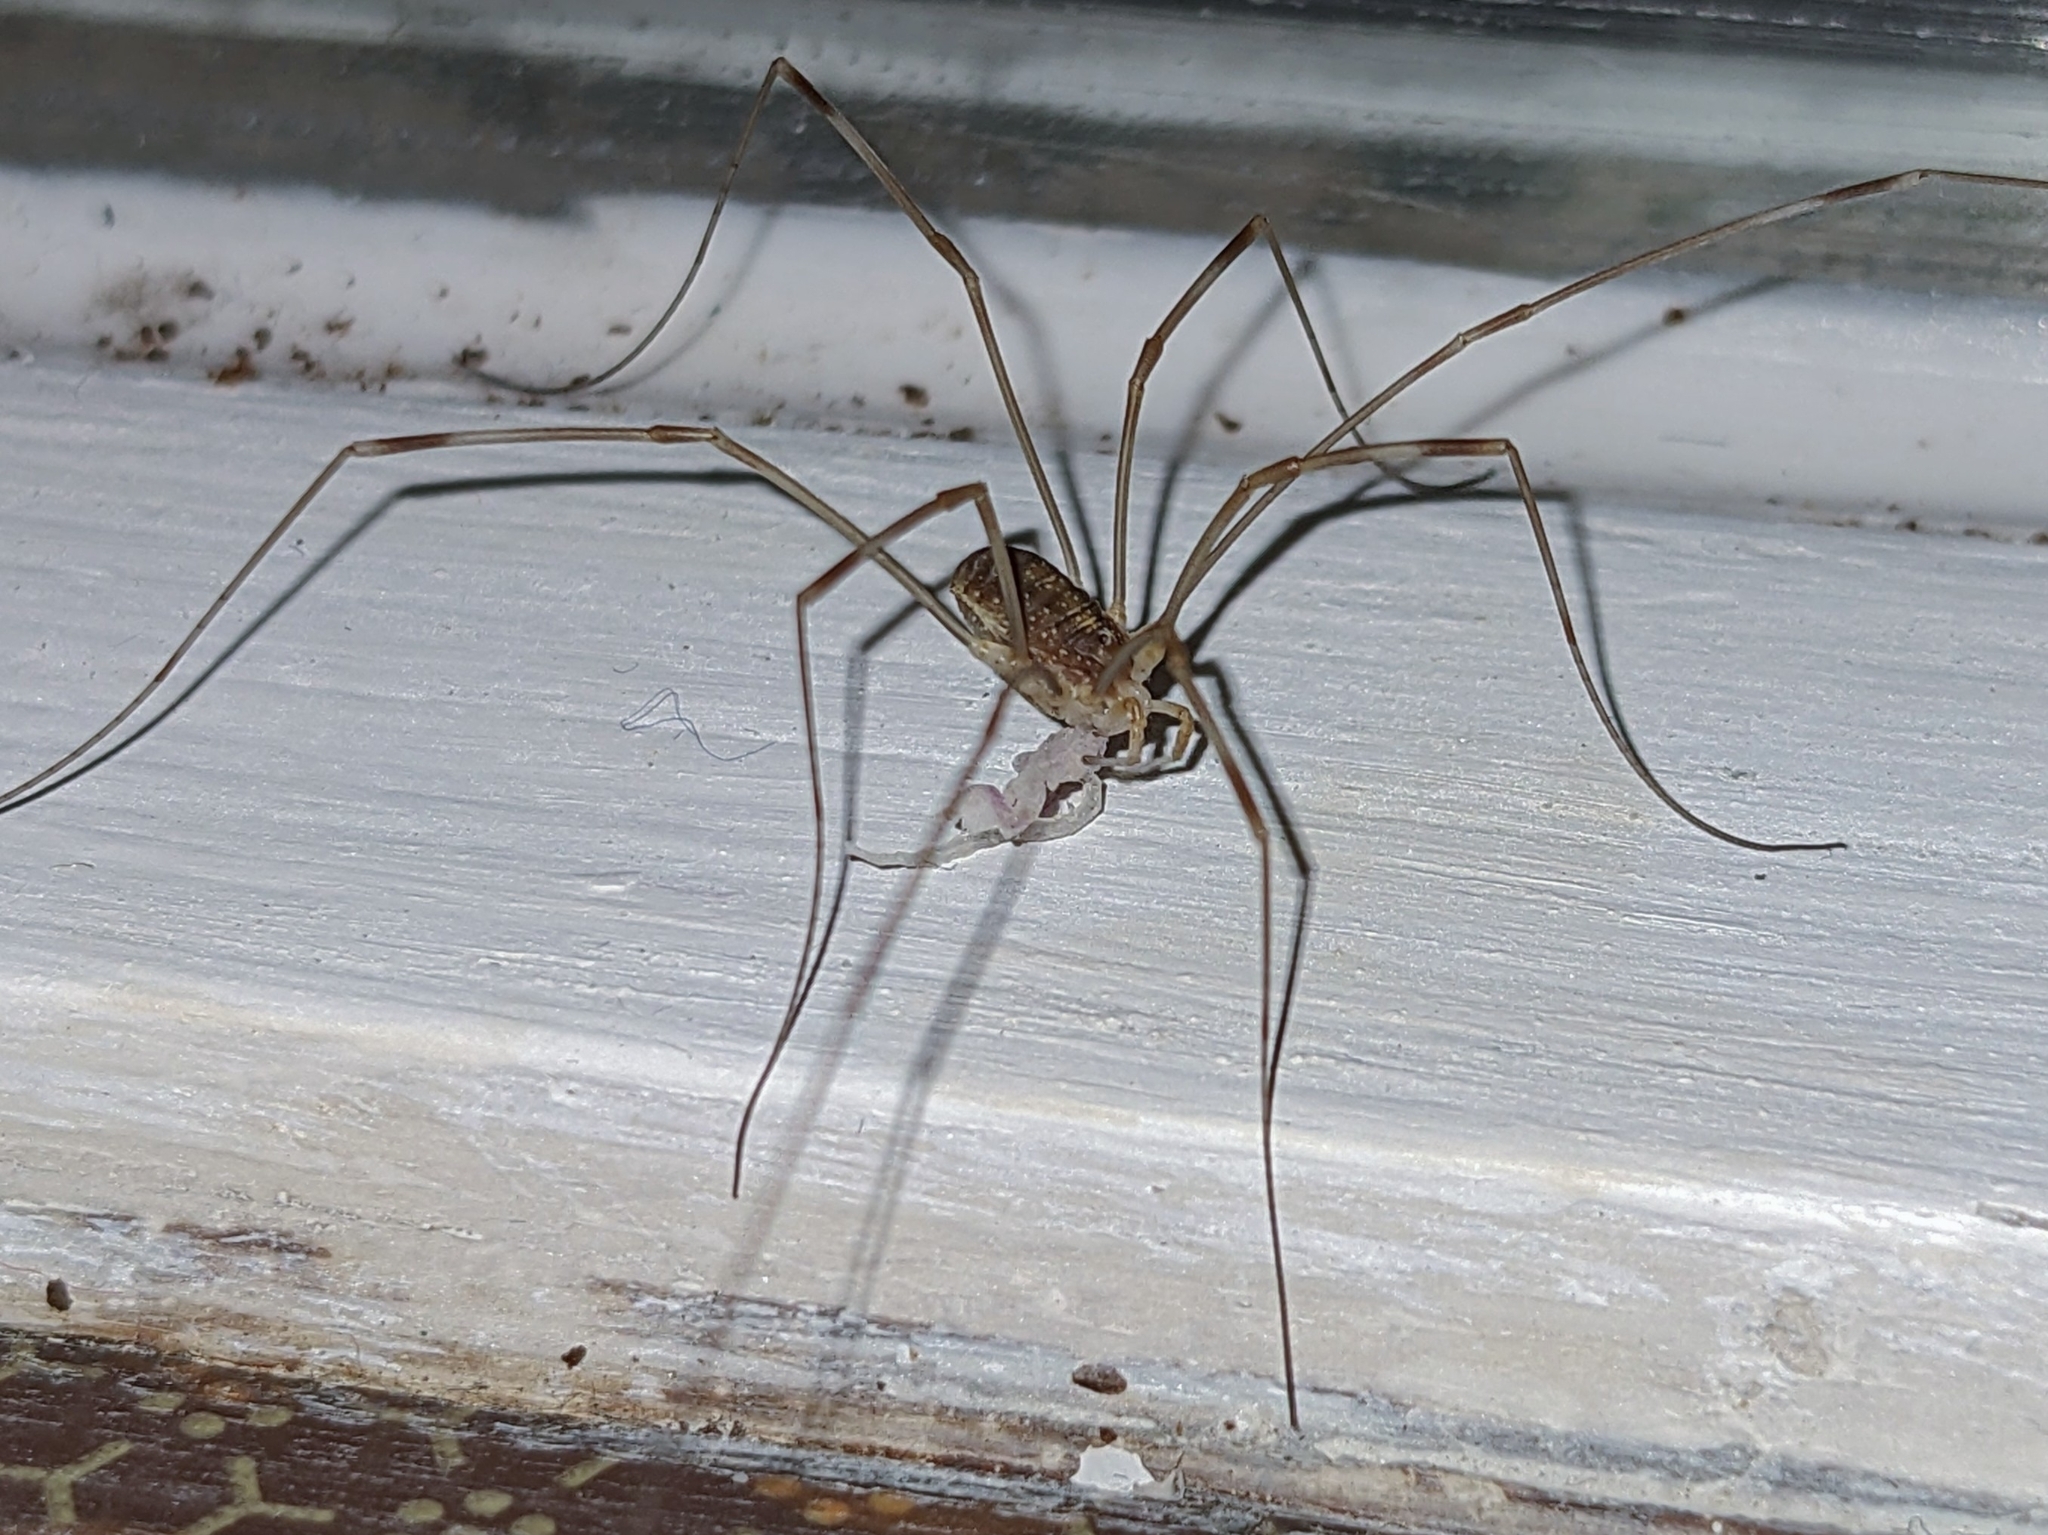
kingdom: Animalia
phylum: Arthropoda
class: Arachnida
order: Opiliones
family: Phalangiidae
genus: Opilio
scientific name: Opilio canestrinii
